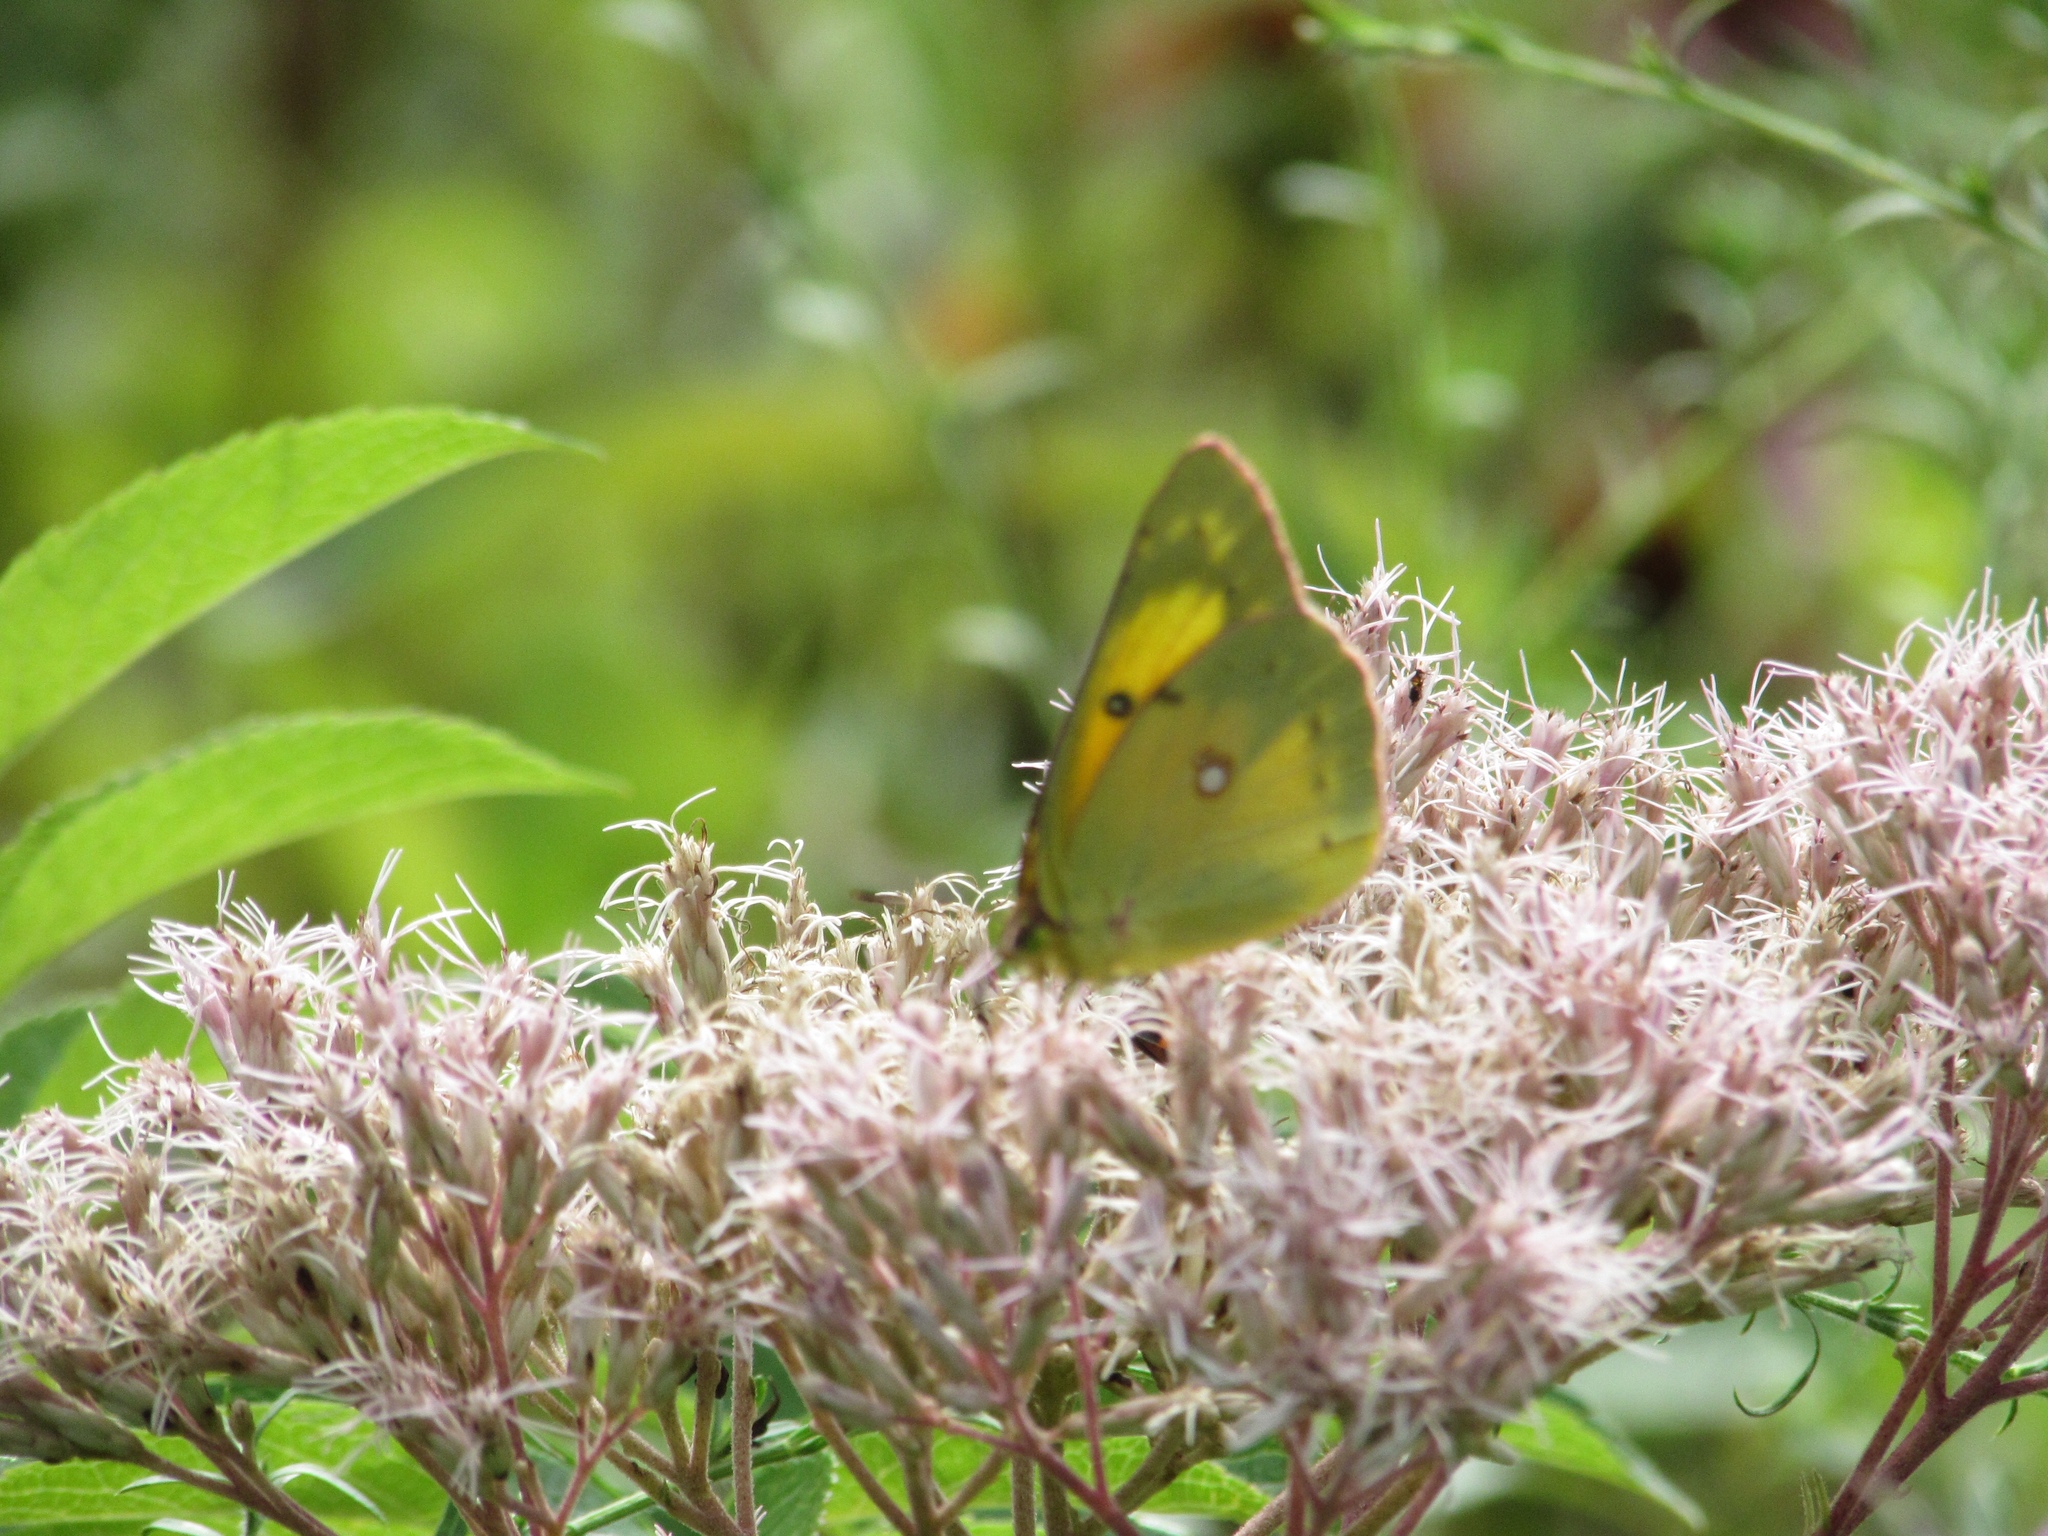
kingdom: Animalia
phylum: Arthropoda
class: Insecta
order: Lepidoptera
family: Pieridae
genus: Colias
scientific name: Colias eurytheme
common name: Alfalfa butterfly
